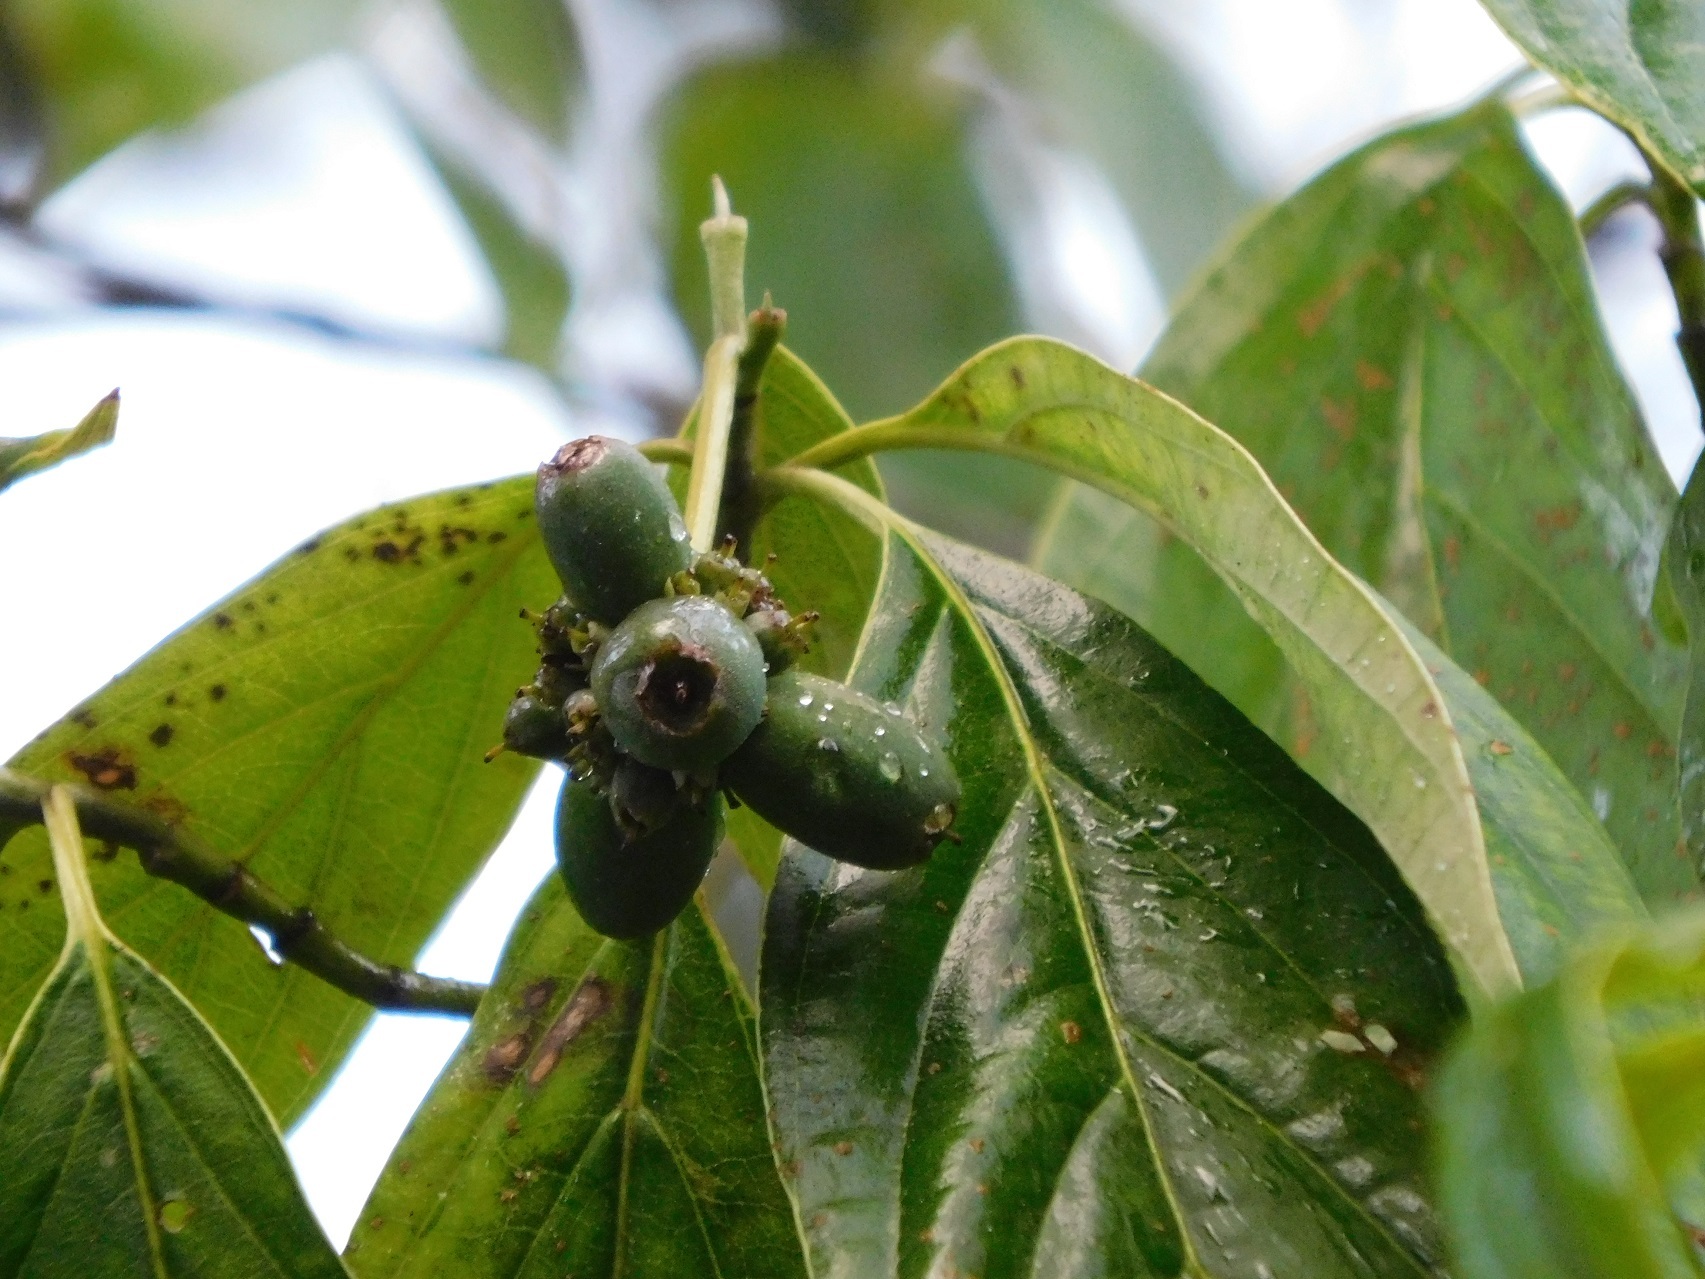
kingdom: Plantae
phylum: Tracheophyta
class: Magnoliopsida
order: Cornales
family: Cornaceae
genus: Cornus
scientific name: Cornus disciflora
